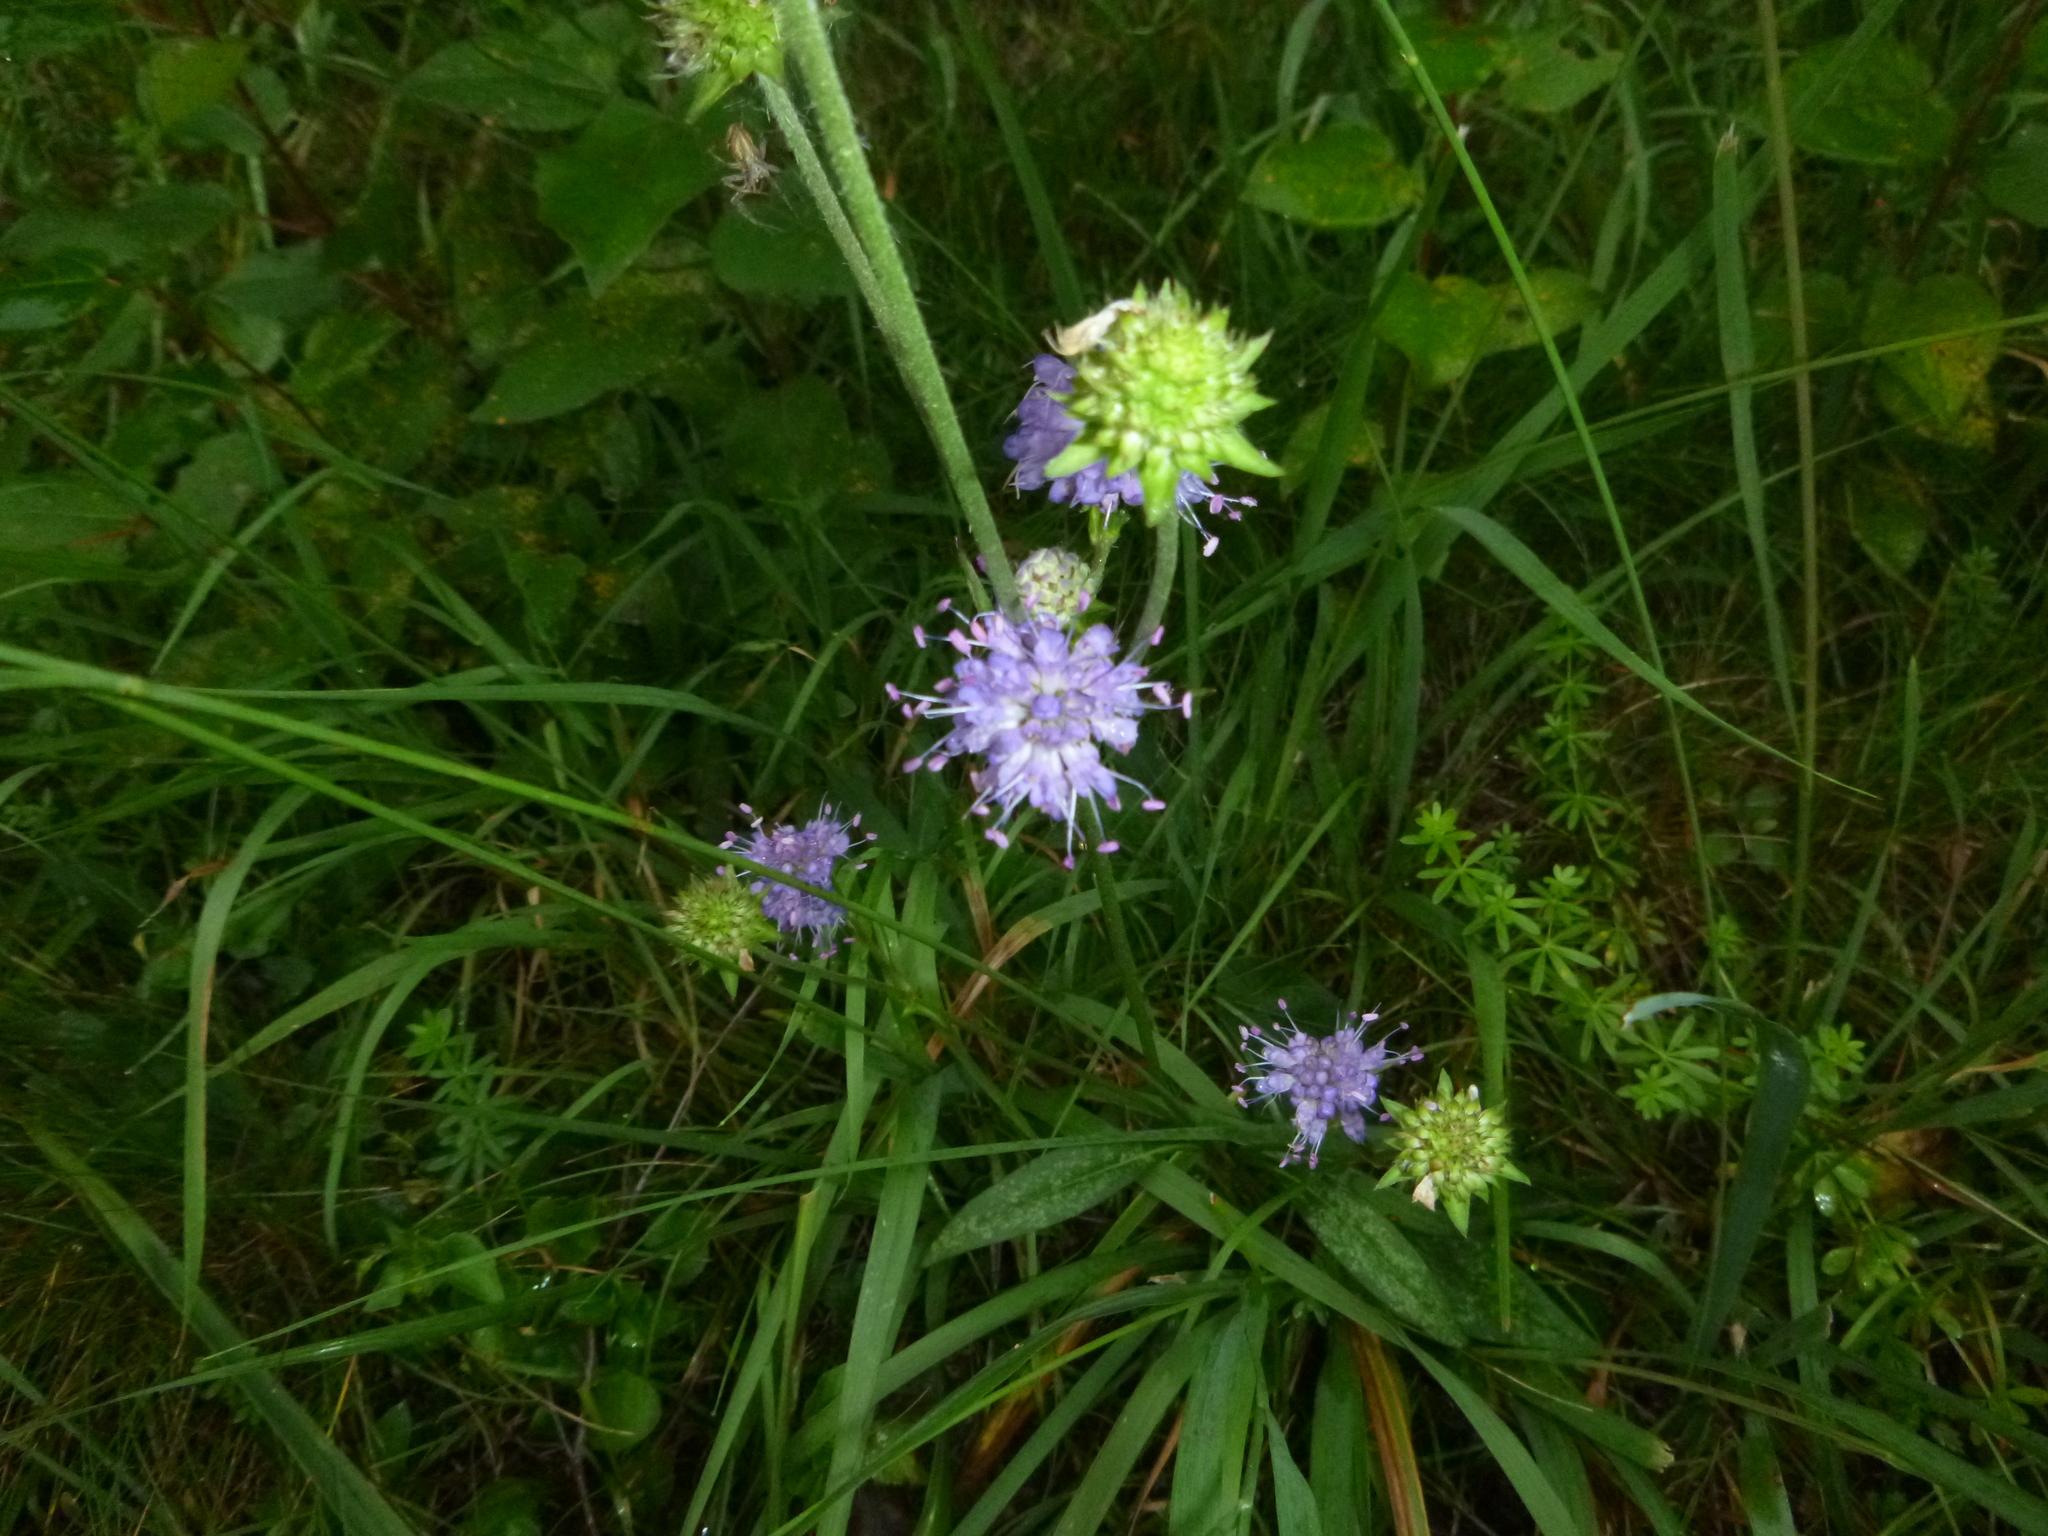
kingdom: Plantae
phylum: Tracheophyta
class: Magnoliopsida
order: Dipsacales
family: Caprifoliaceae
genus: Succisa
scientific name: Succisa pratensis
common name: Devil's-bit
